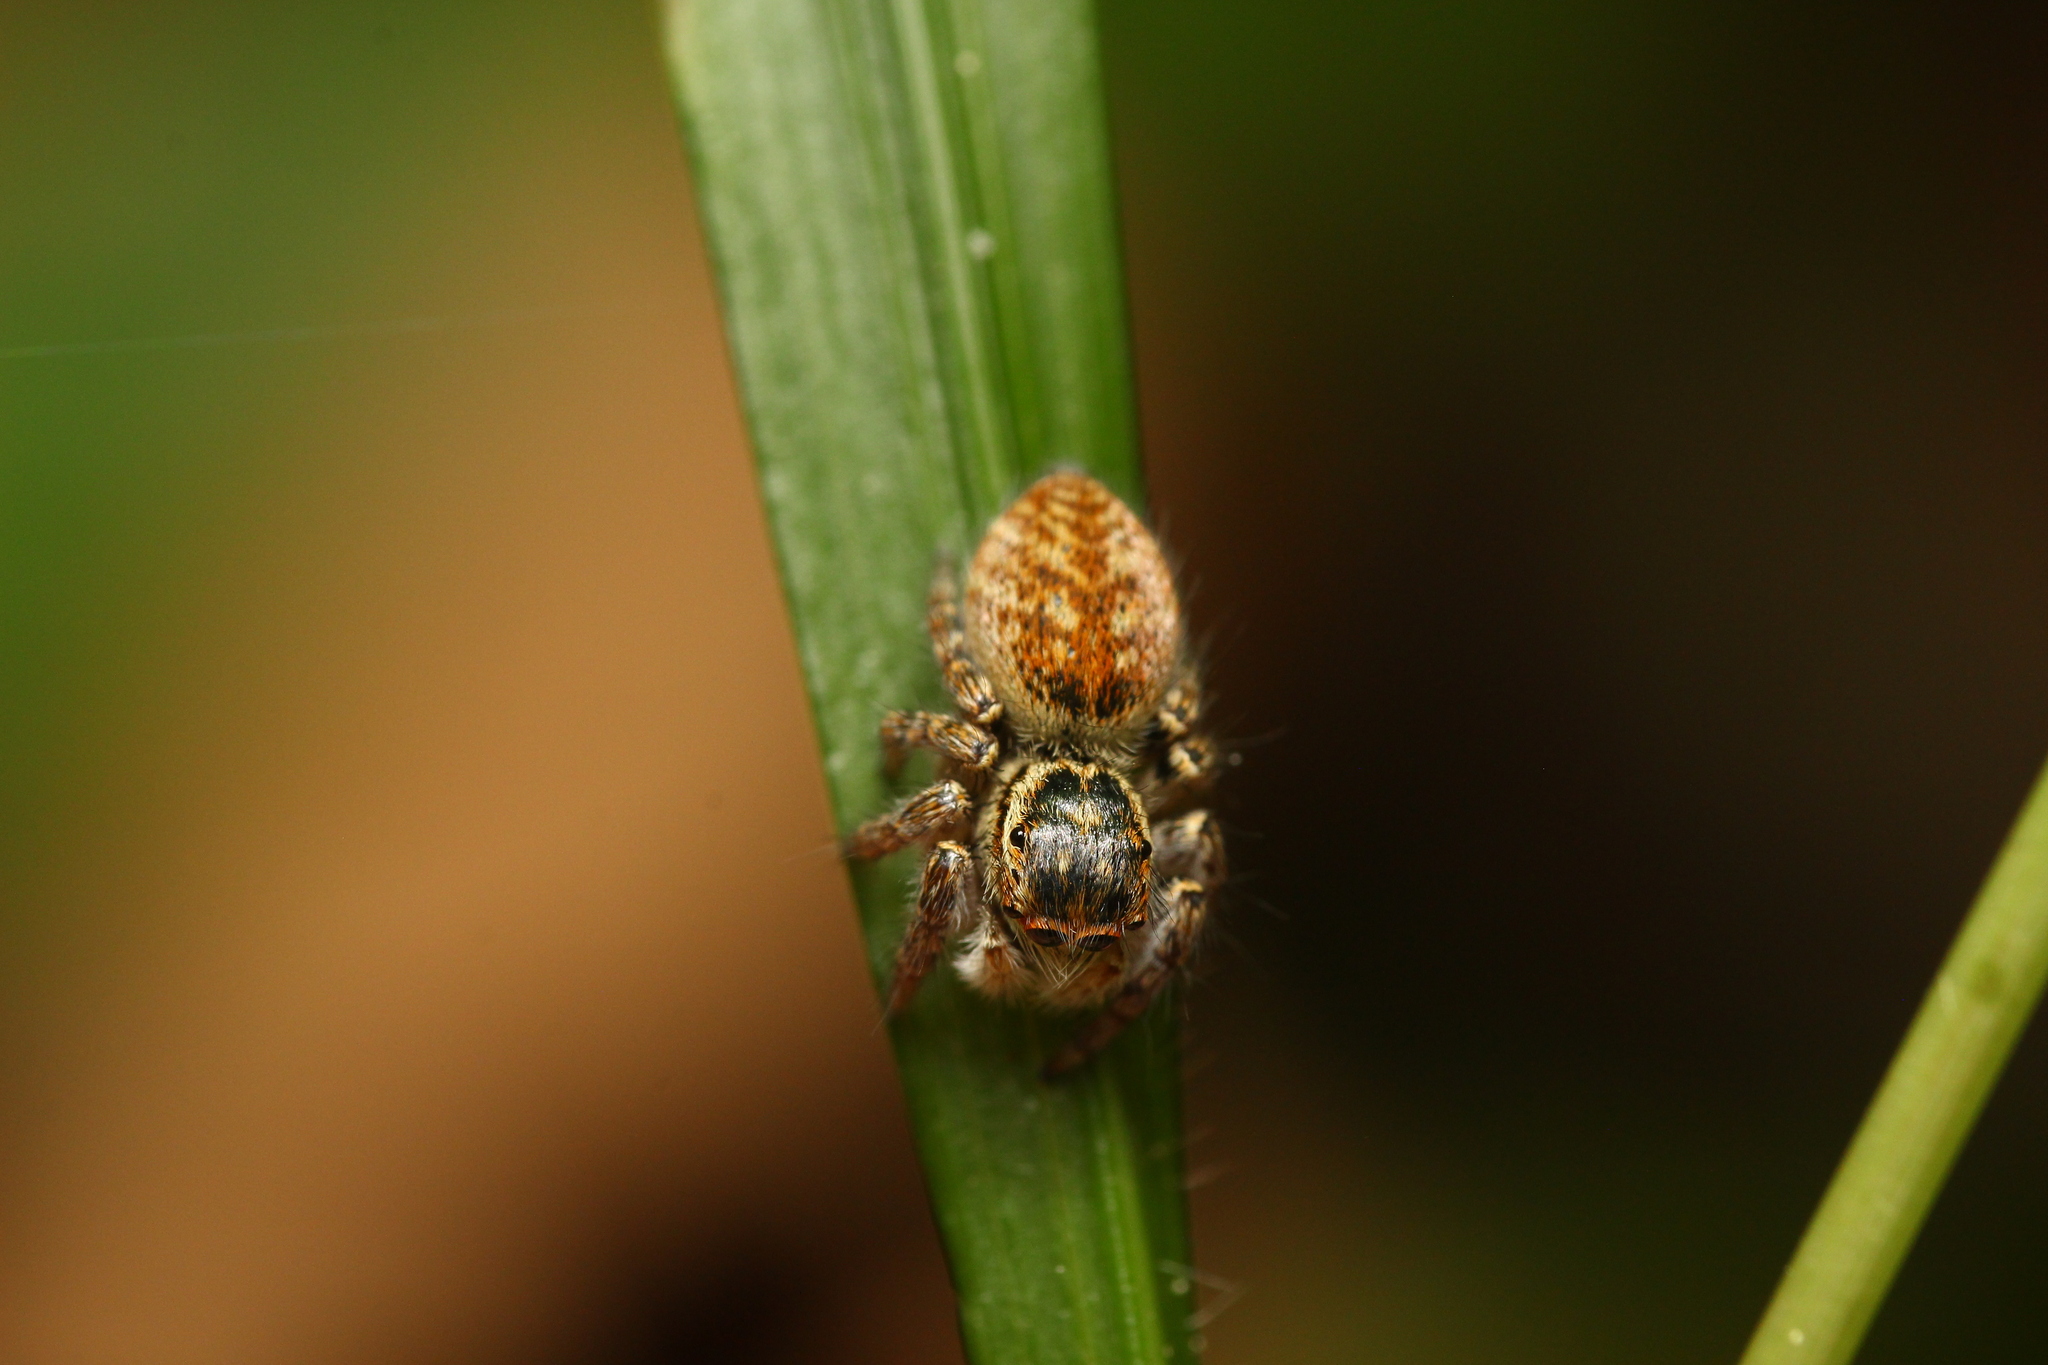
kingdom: Animalia
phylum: Arthropoda
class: Arachnida
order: Araneae
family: Salticidae
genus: Carrhotus
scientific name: Carrhotus xanthogramma
